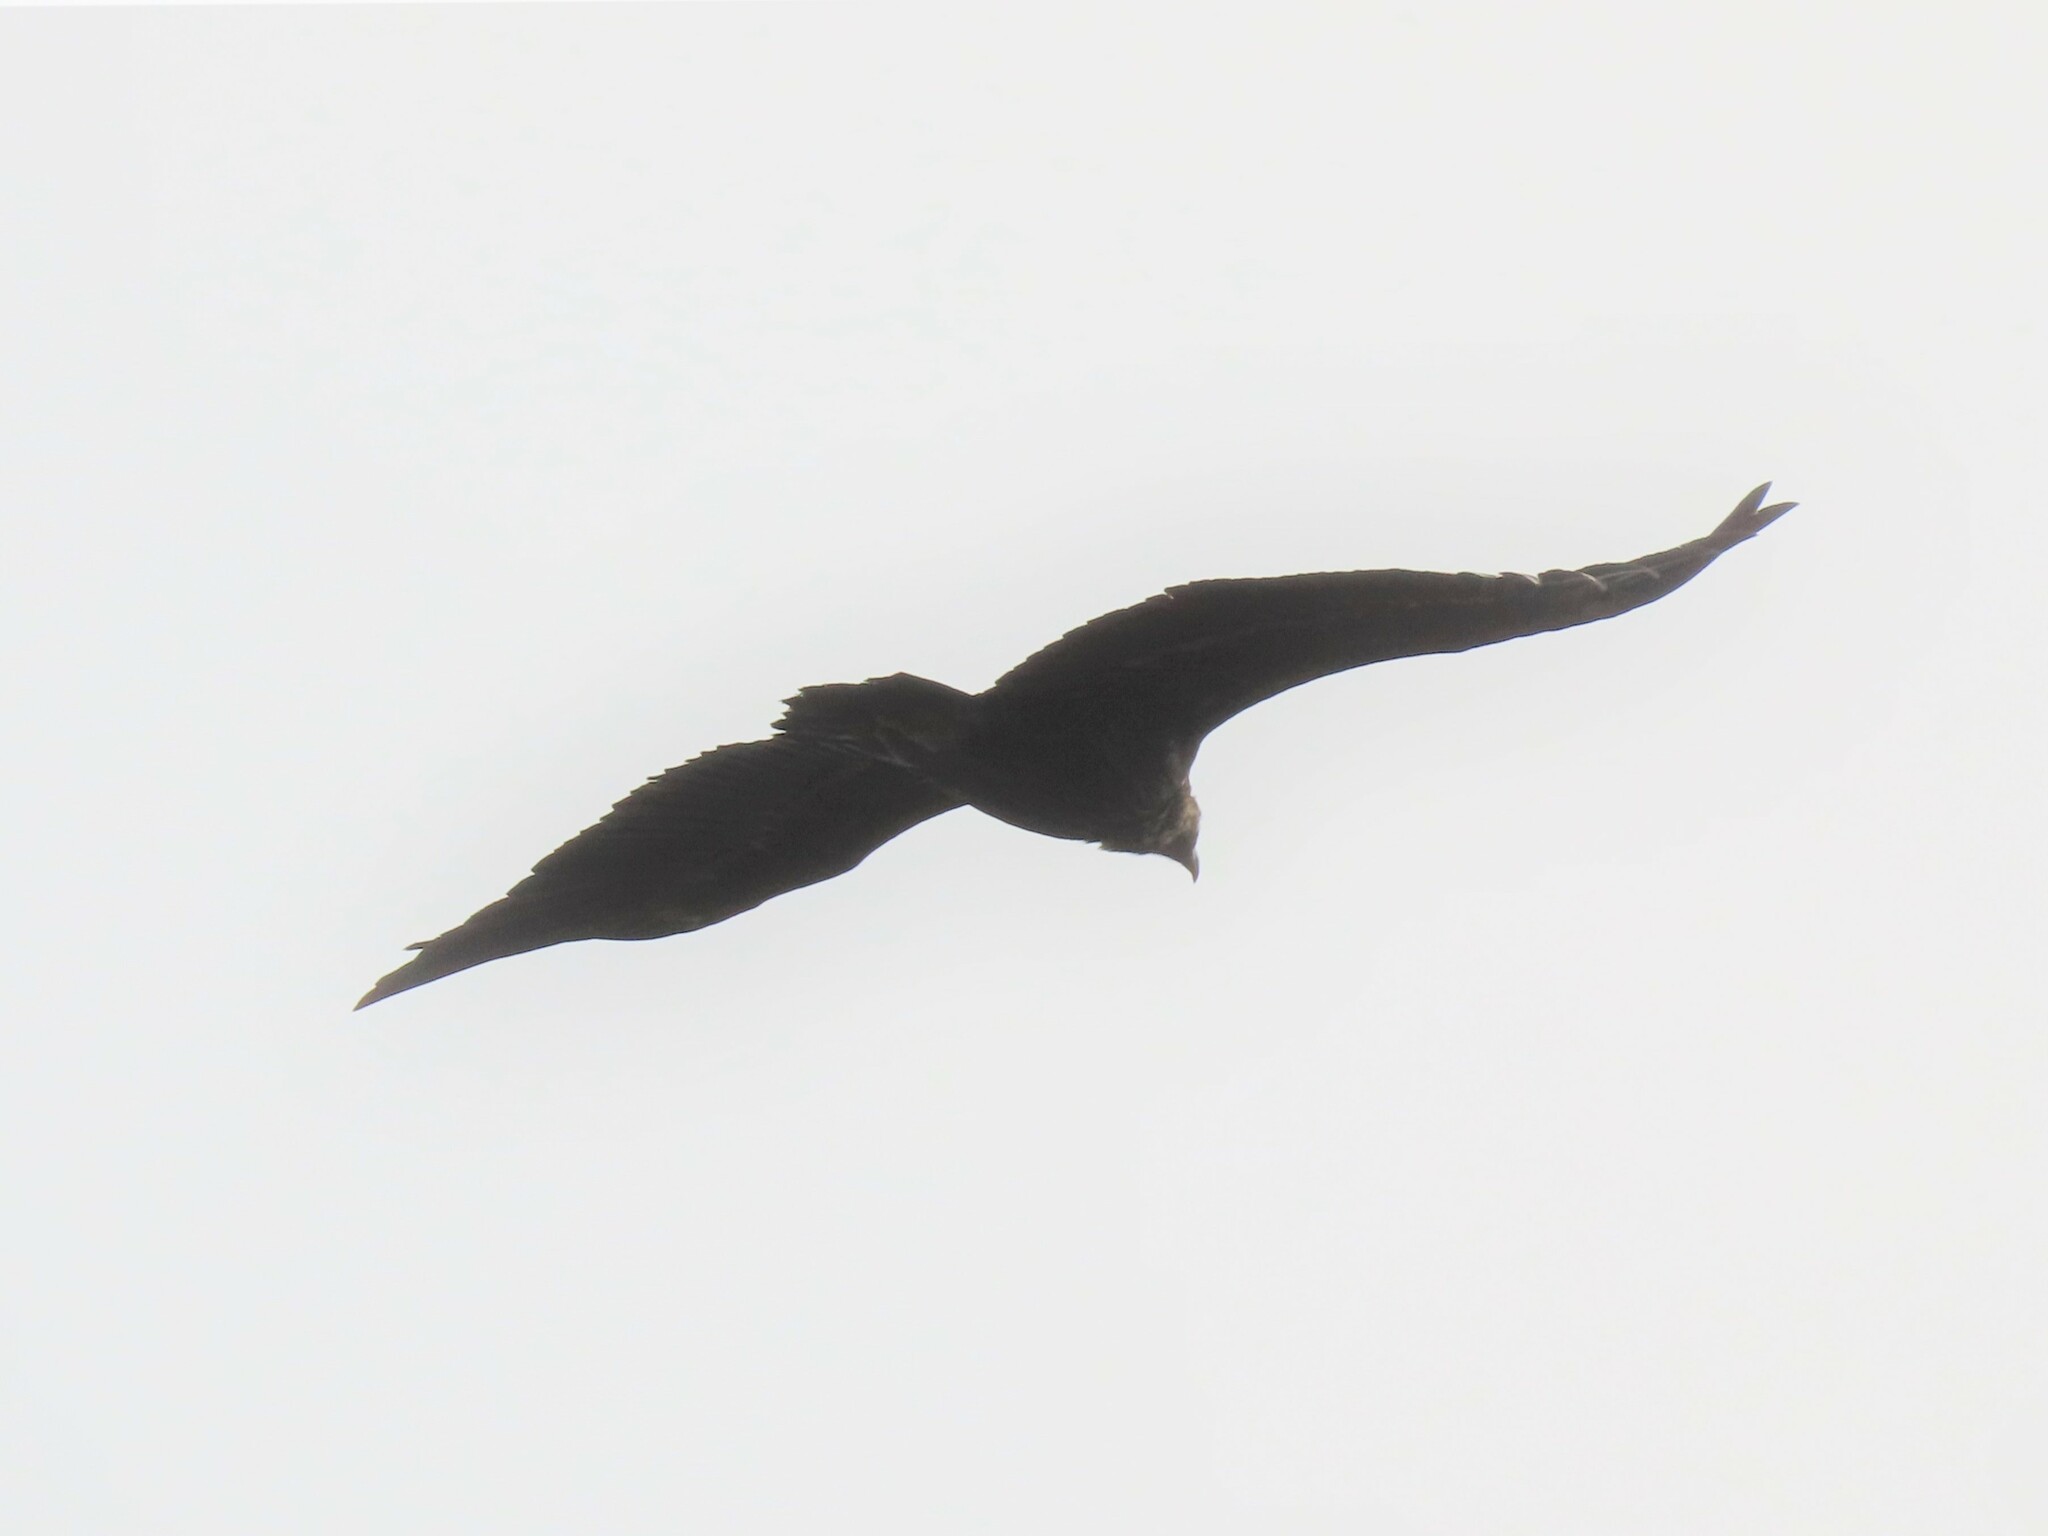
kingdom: Animalia
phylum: Chordata
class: Aves
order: Accipitriformes
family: Accipitridae
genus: Aegypius
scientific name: Aegypius monachus
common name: Cinereous vulture
